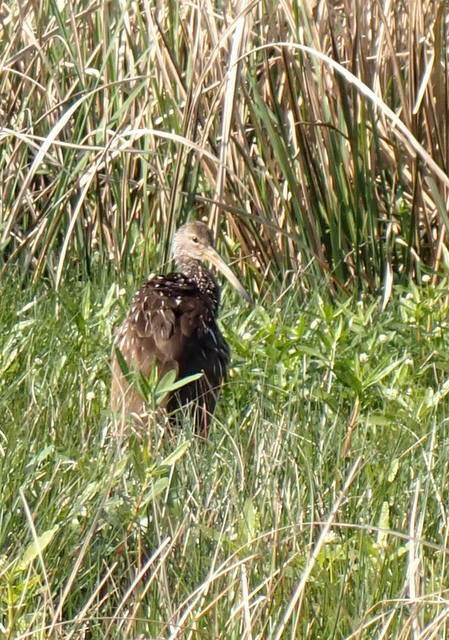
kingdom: Animalia
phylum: Chordata
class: Aves
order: Gruiformes
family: Aramidae
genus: Aramus
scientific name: Aramus guarauna
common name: Limpkin
